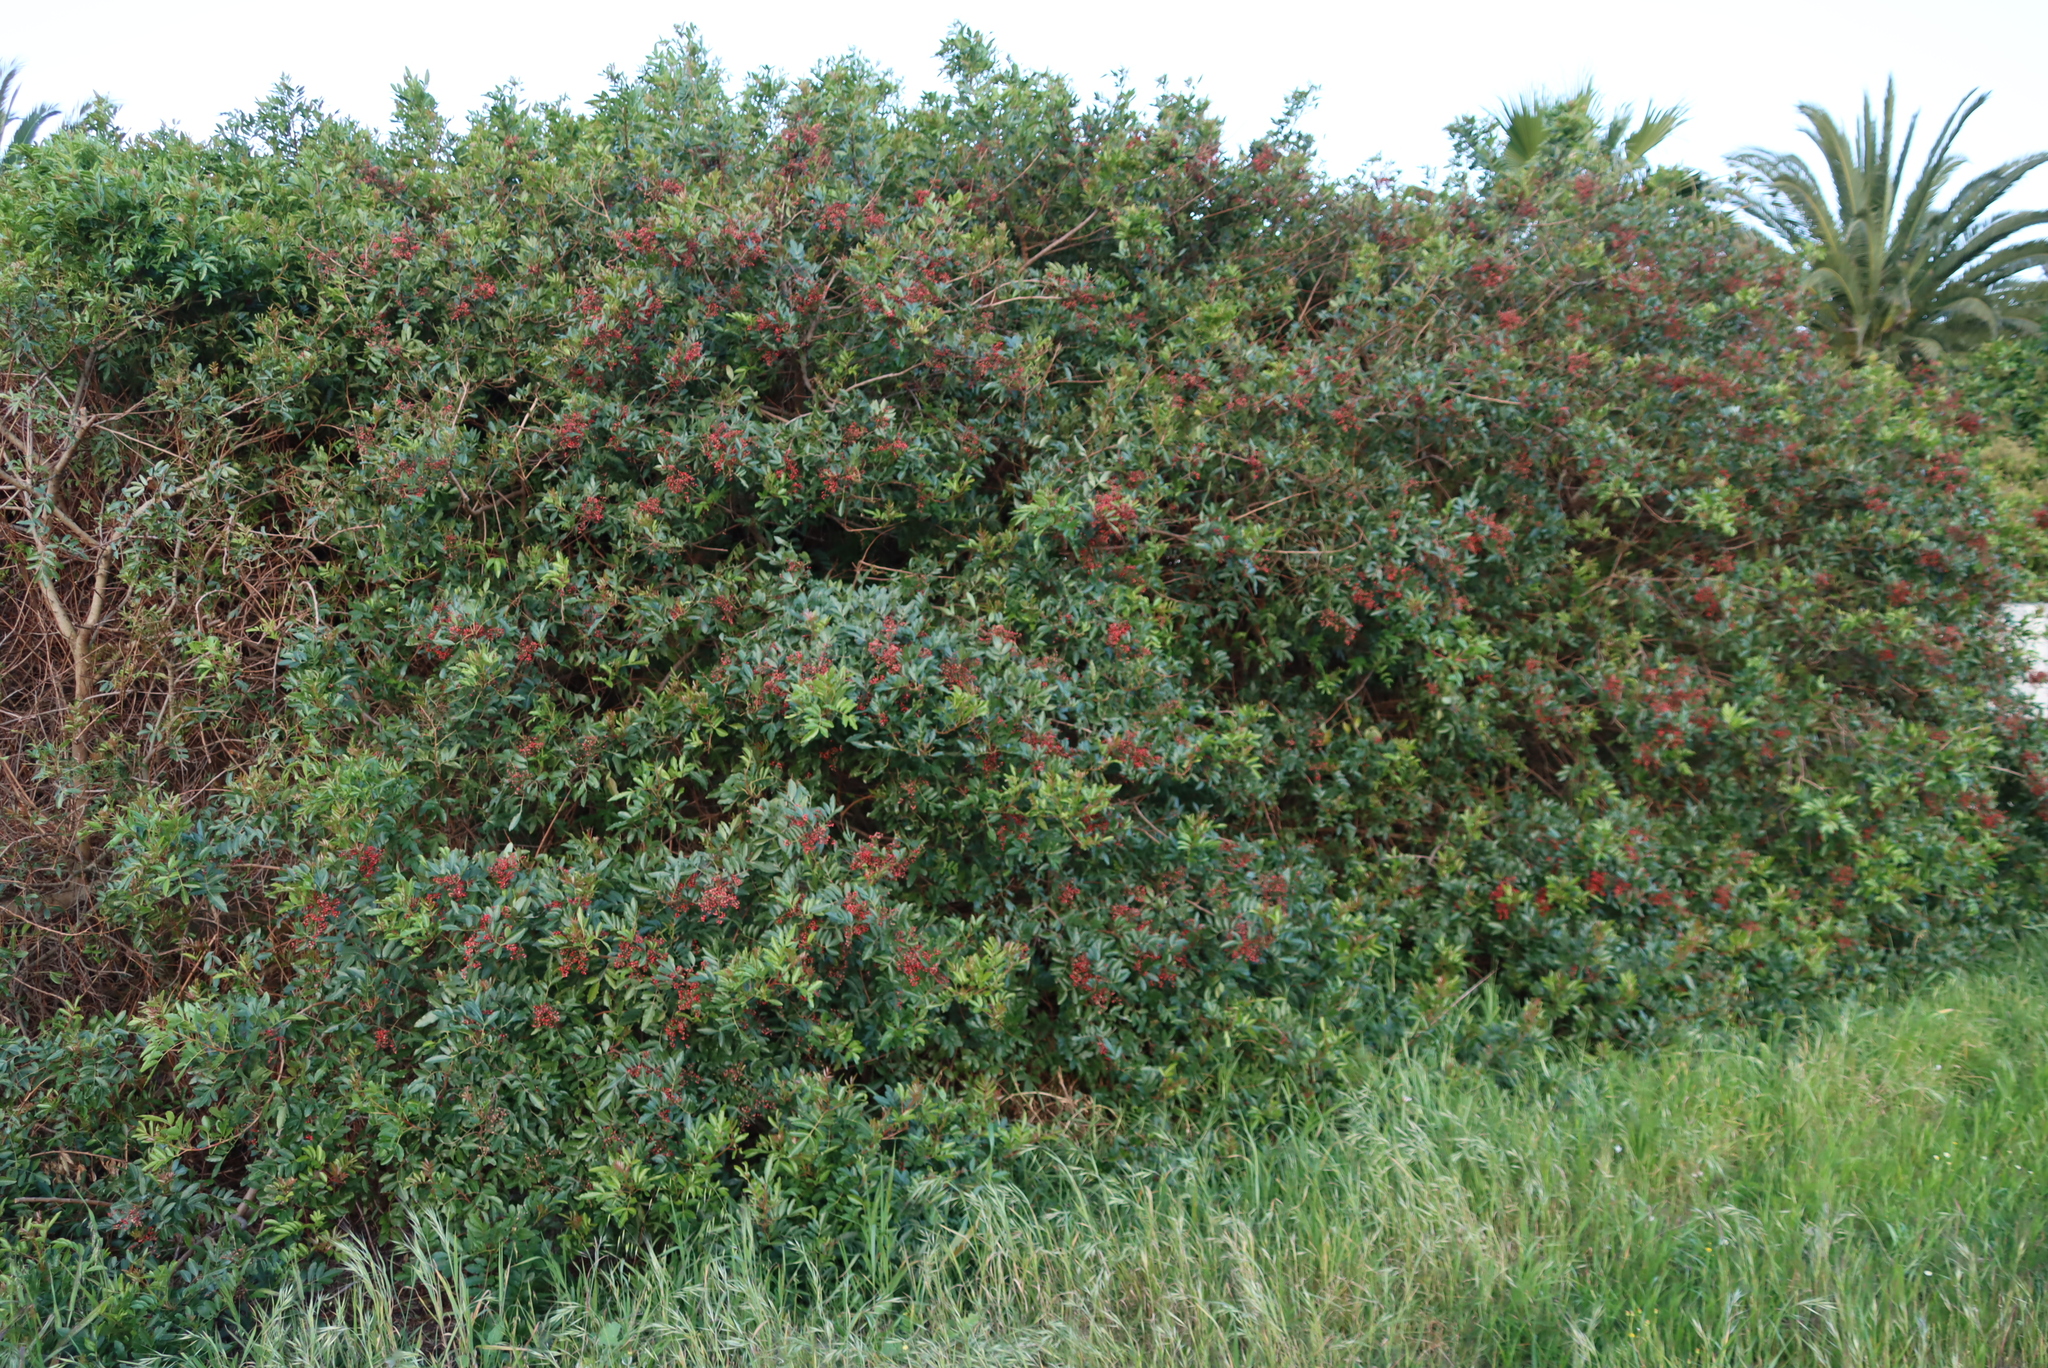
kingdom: Plantae
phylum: Tracheophyta
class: Magnoliopsida
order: Sapindales
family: Anacardiaceae
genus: Schinus
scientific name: Schinus terebinthifolia
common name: Brazilian peppertree
